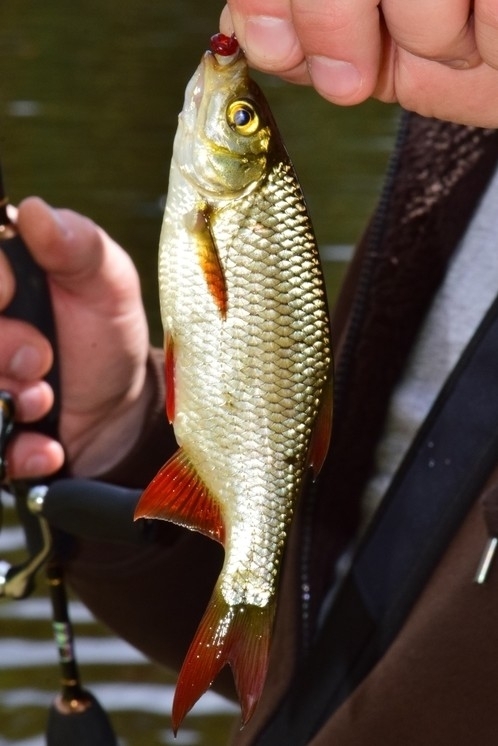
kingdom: Animalia
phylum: Chordata
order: Cypriniformes
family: Cyprinidae
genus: Scardinius
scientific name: Scardinius erythrophthalmus
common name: Rudd
